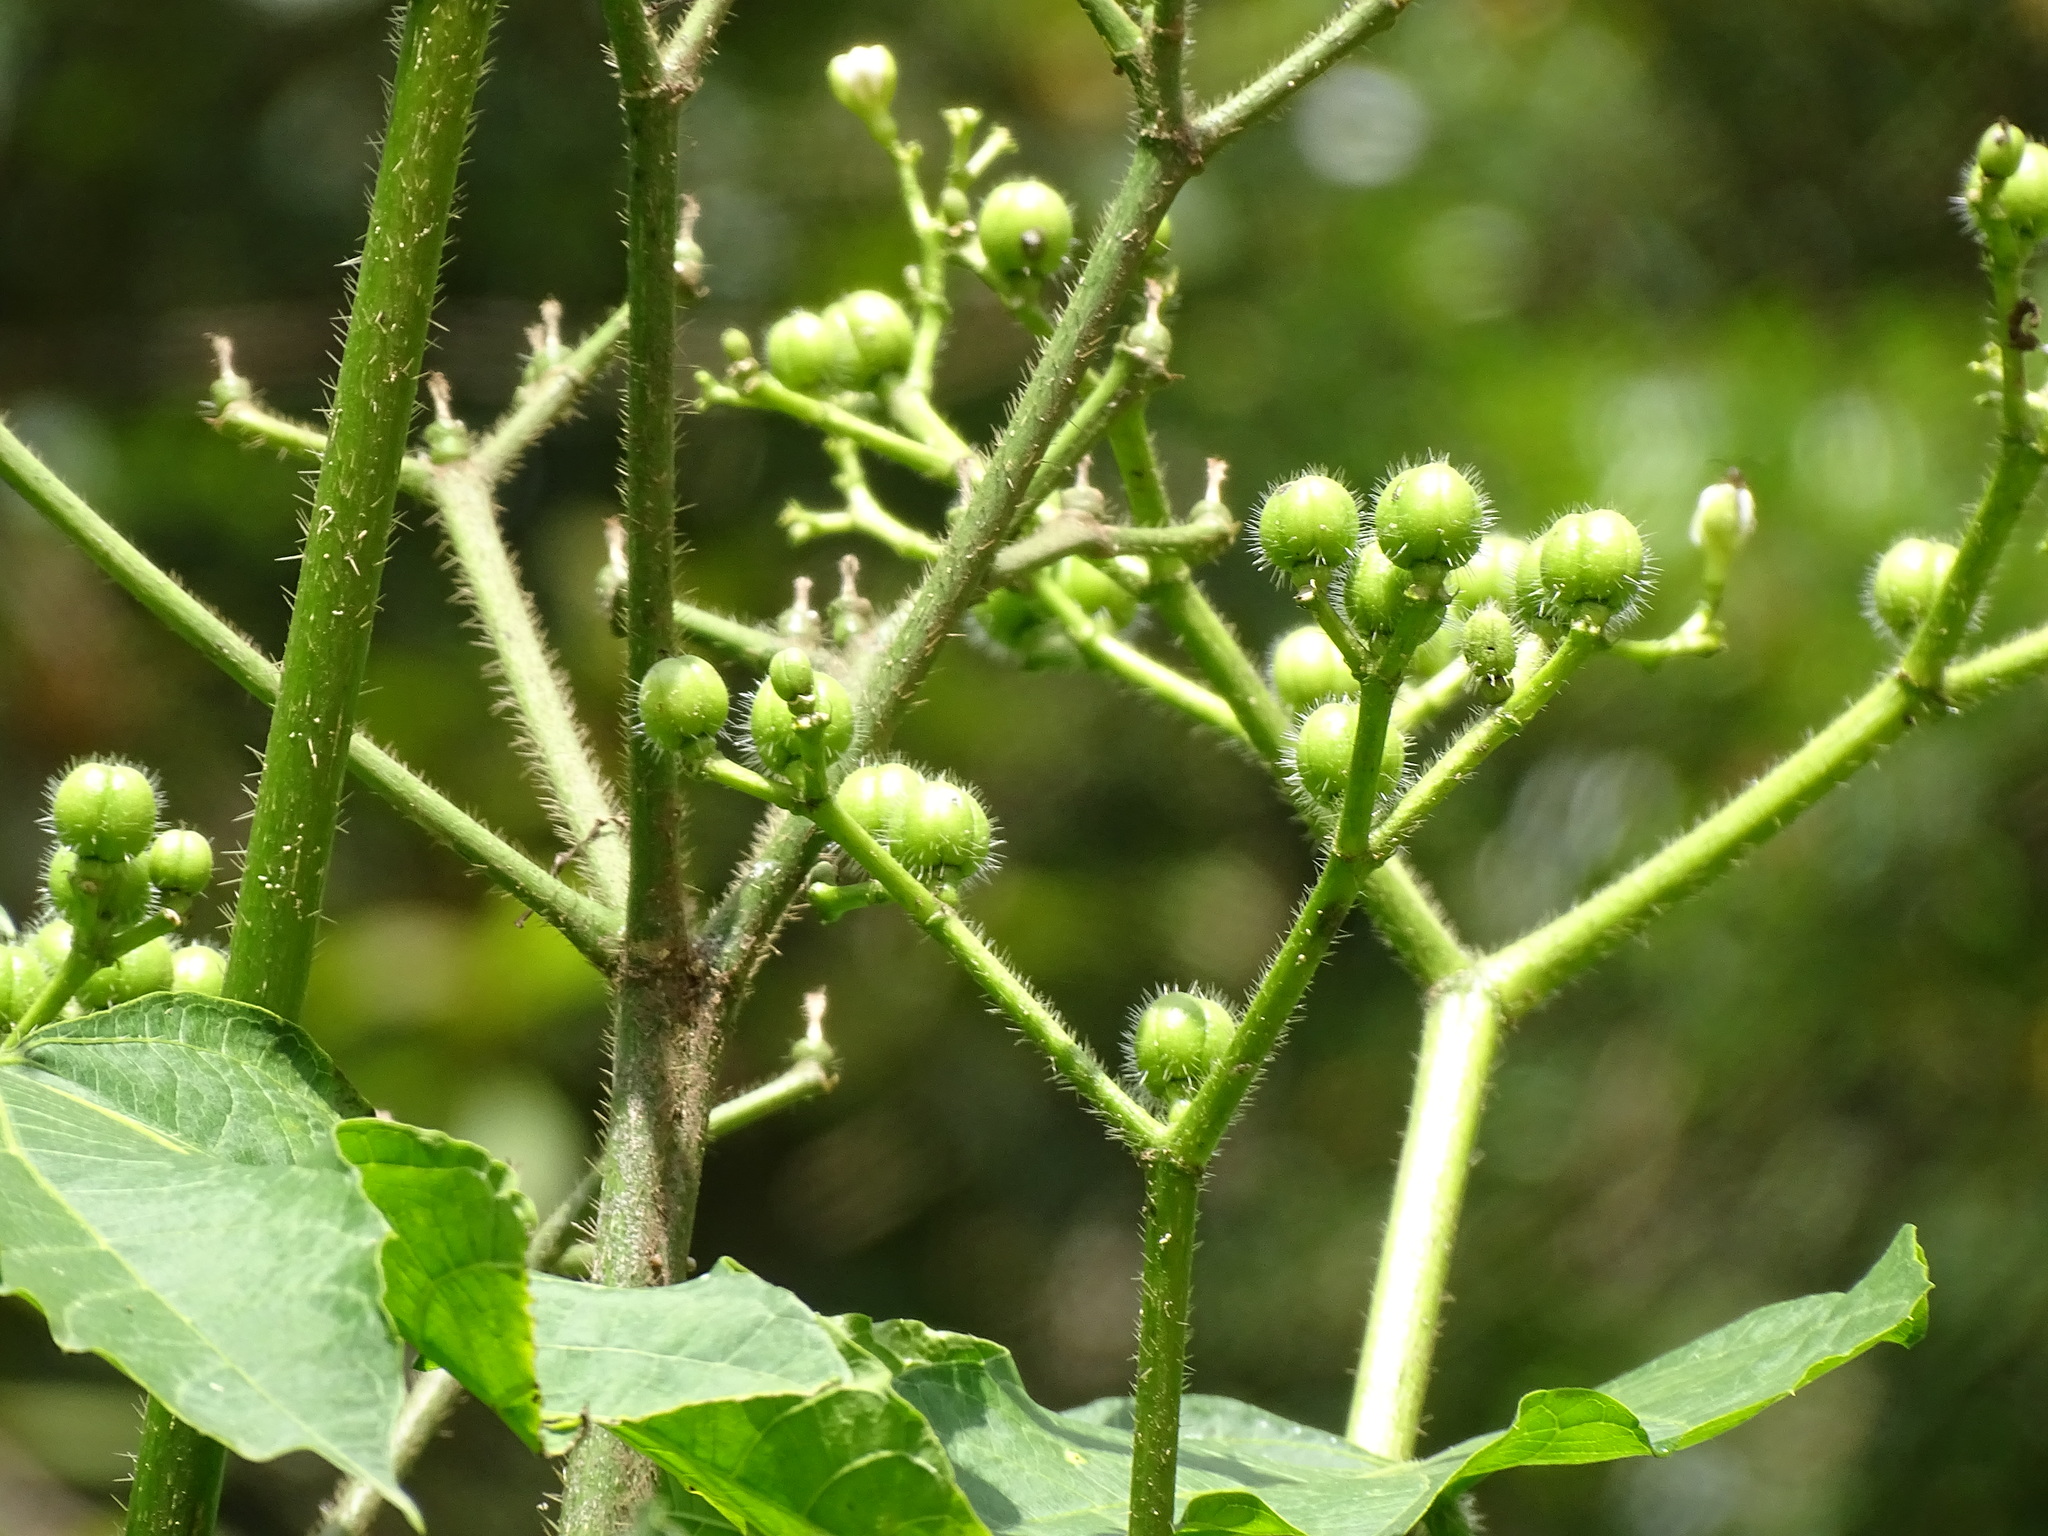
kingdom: Plantae
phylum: Tracheophyta
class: Magnoliopsida
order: Malpighiales
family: Euphorbiaceae
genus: Cnidoscolus
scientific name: Cnidoscolus multilobus
